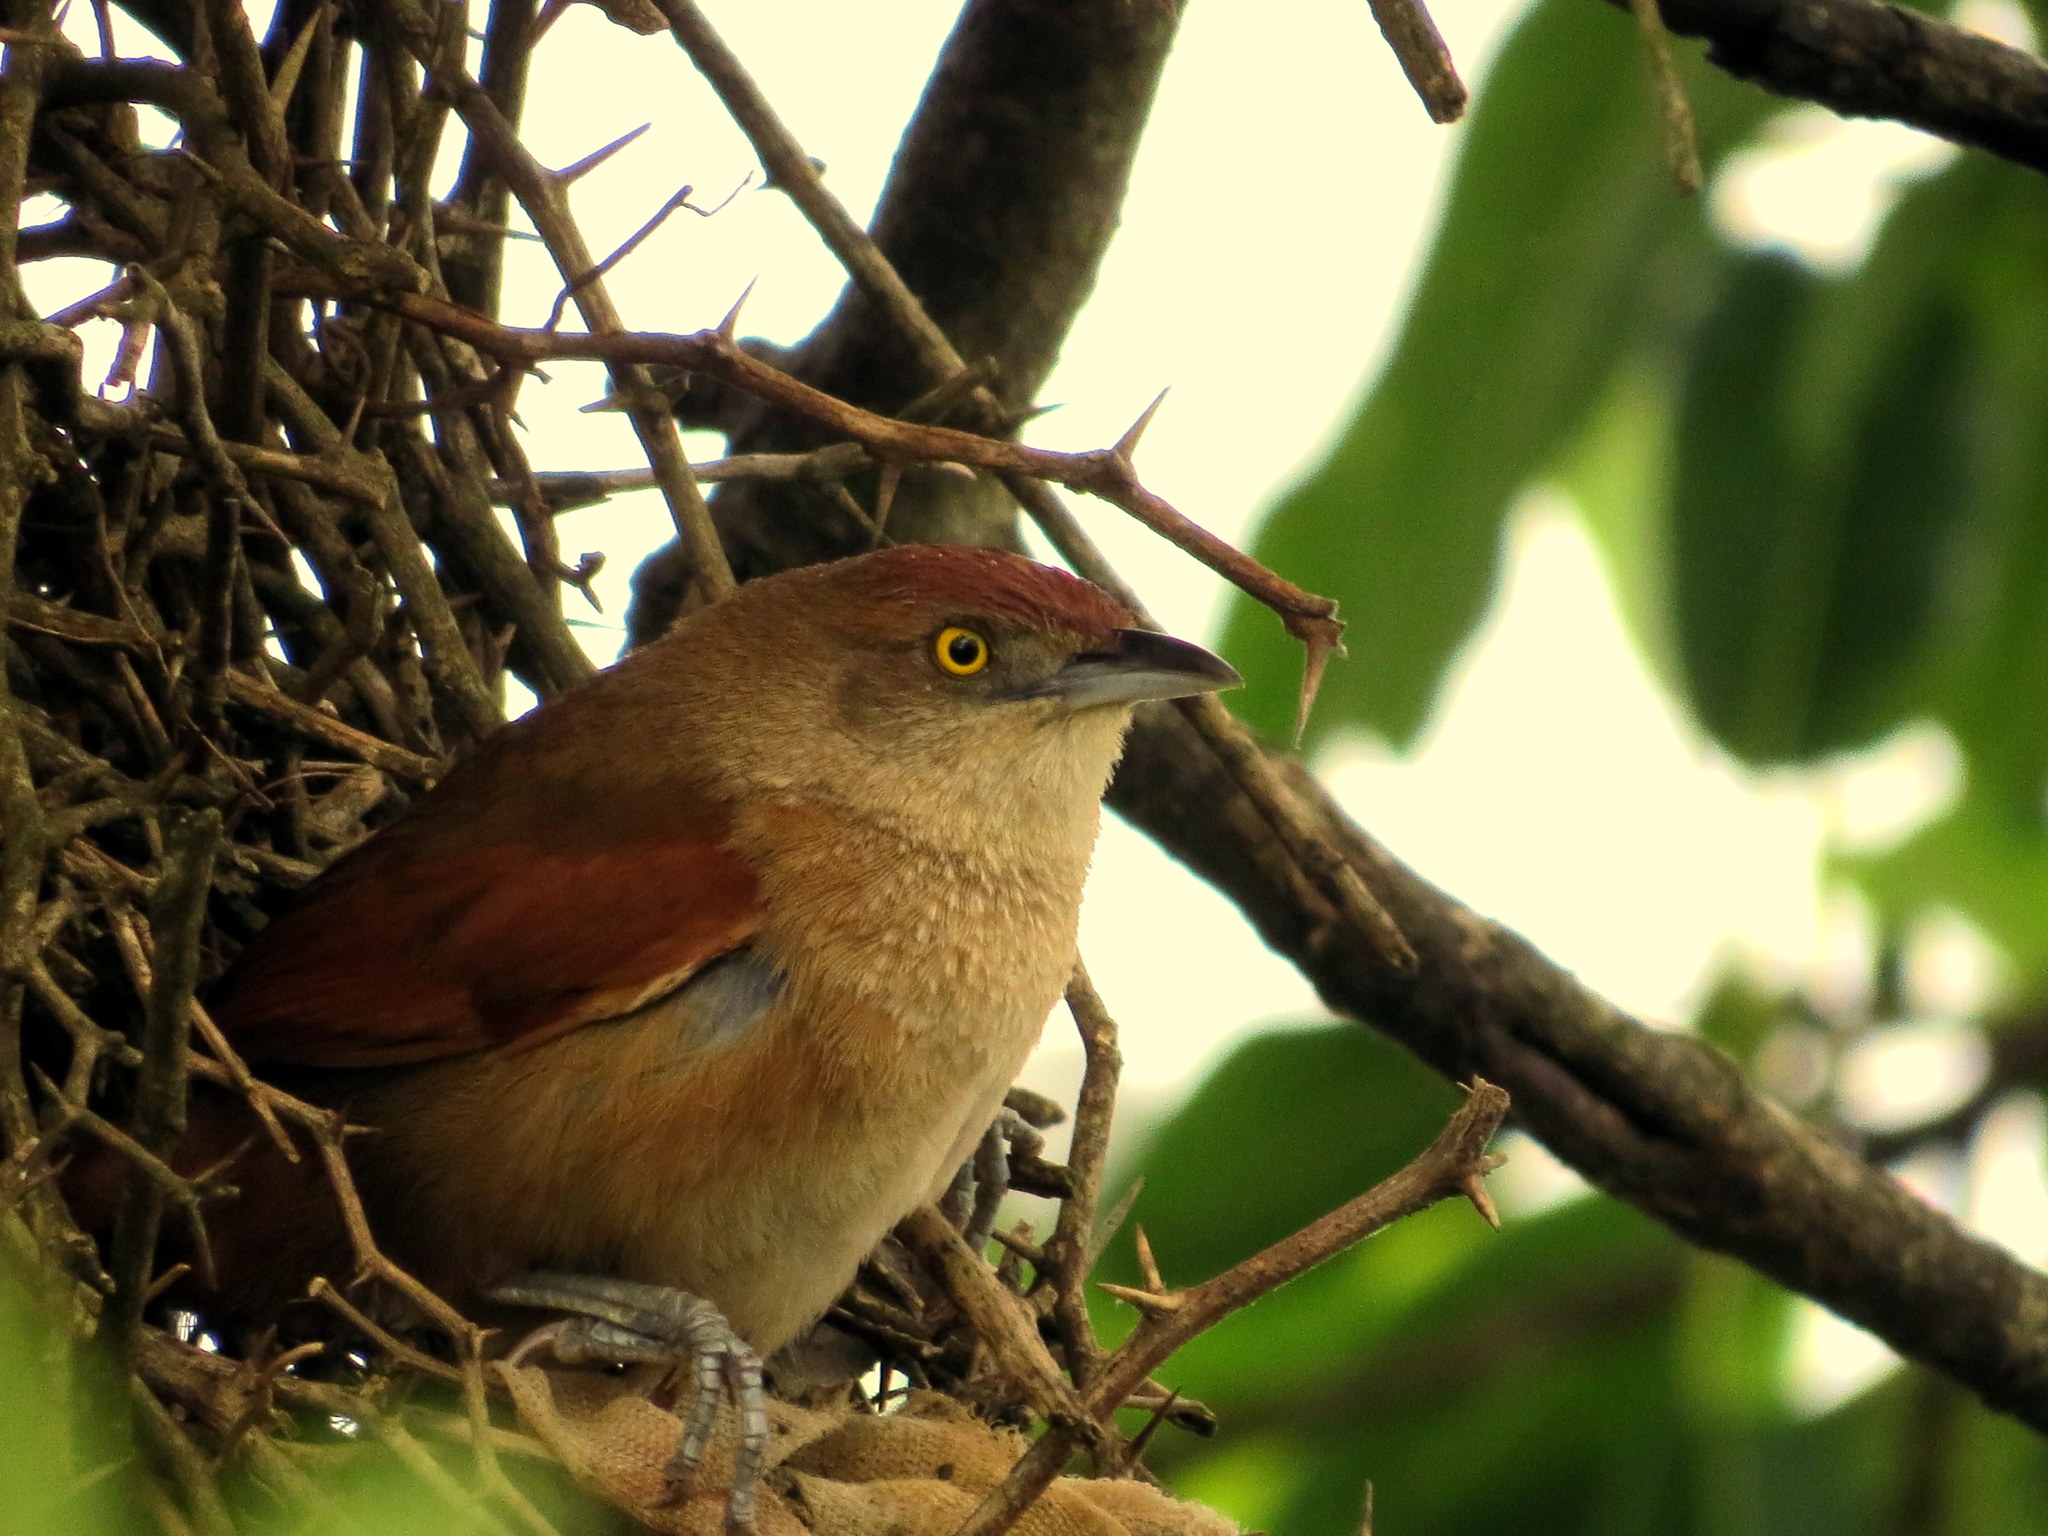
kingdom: Animalia
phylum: Chordata
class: Aves
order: Passeriformes
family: Furnariidae
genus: Phacellodomus
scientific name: Phacellodomus ruber
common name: Greater thornbird
